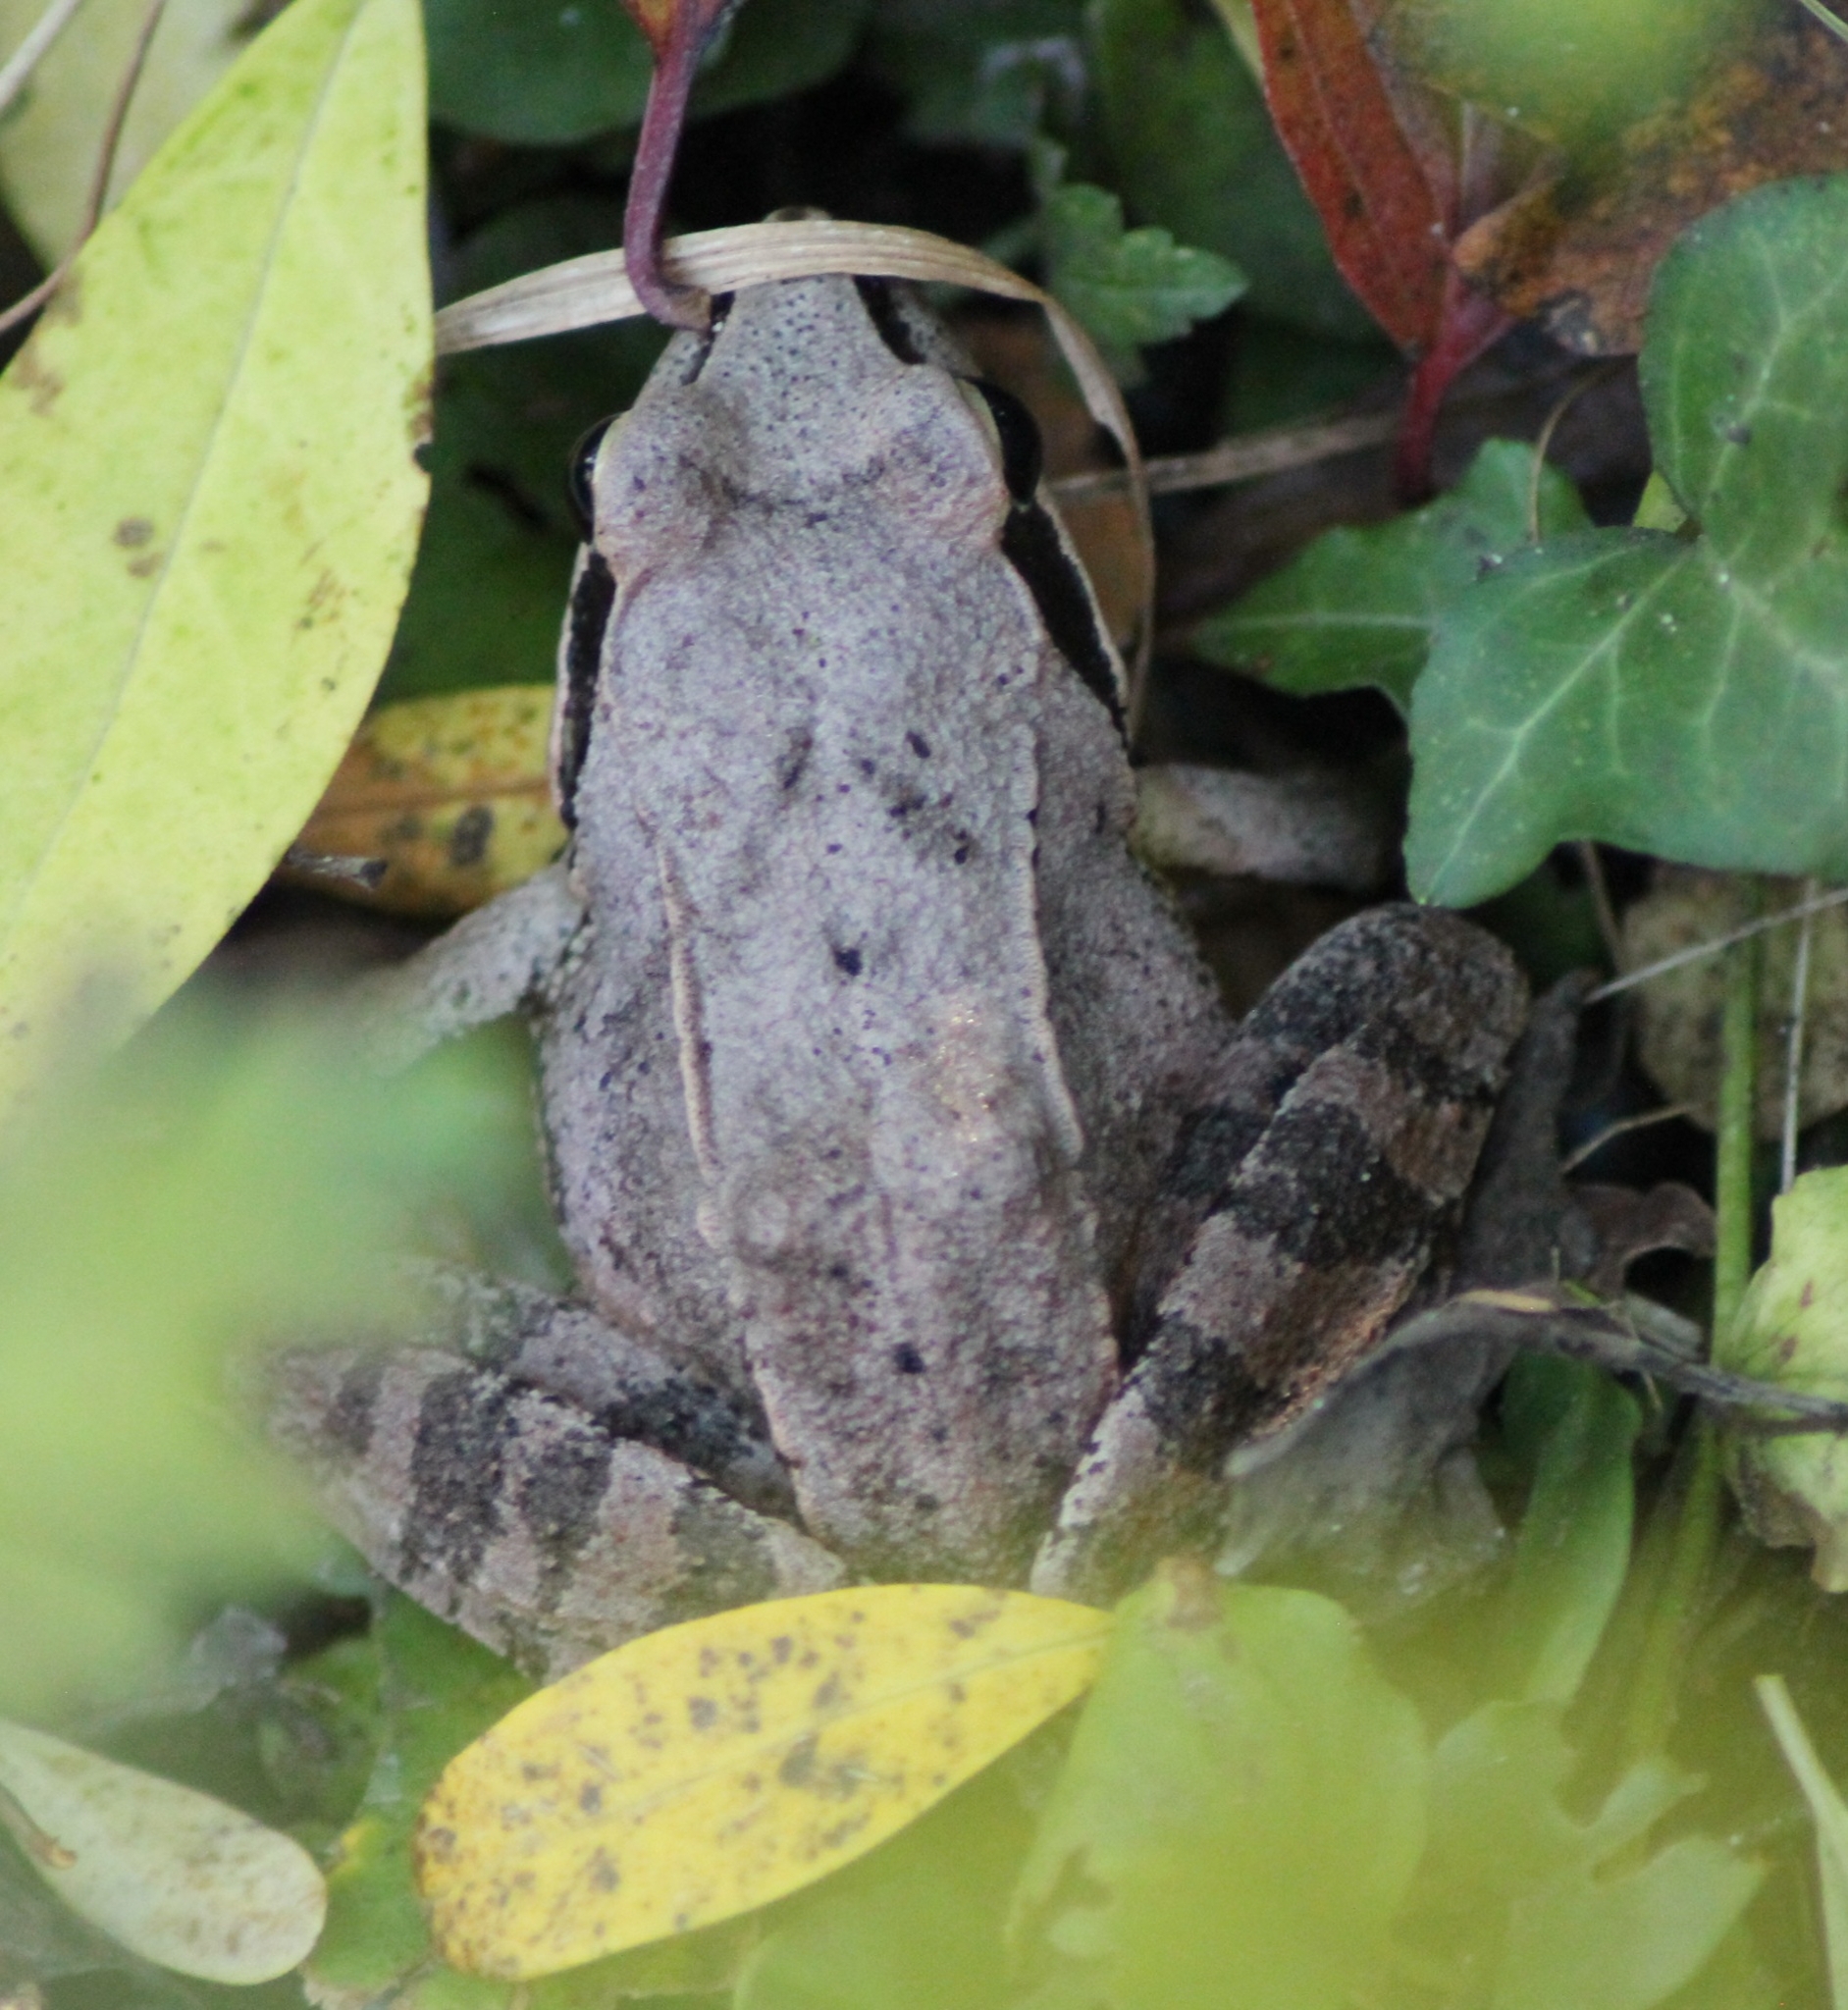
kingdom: Animalia
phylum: Chordata
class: Amphibia
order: Anura
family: Ranidae
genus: Rana
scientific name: Rana dalmatina
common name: Agile frog
